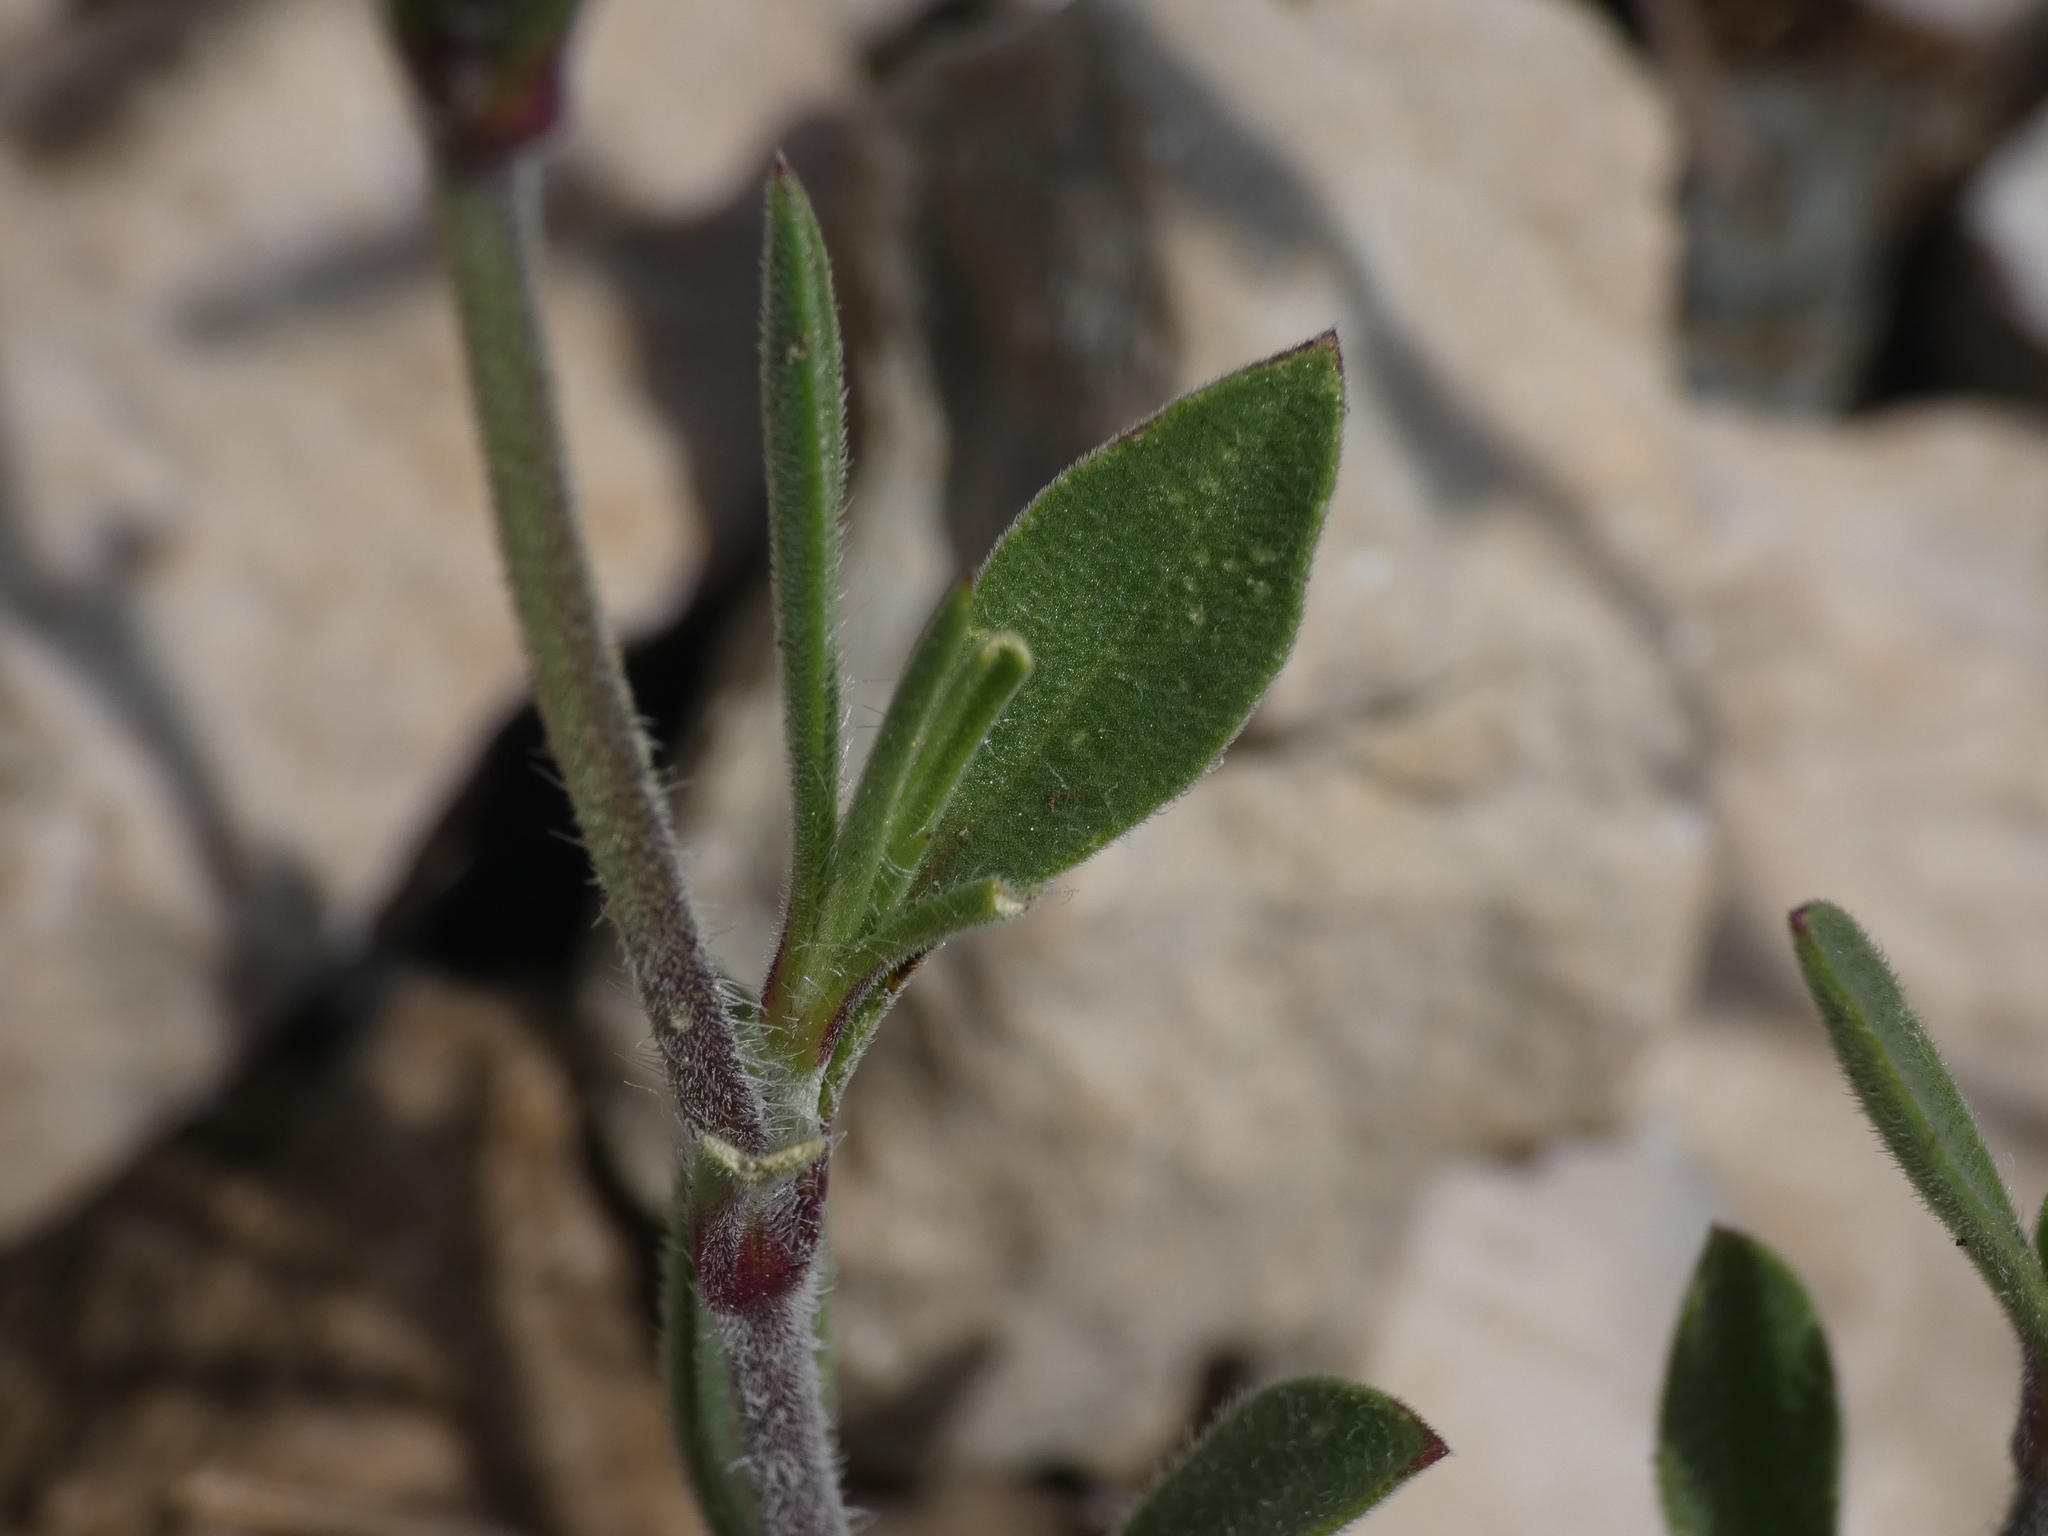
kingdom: Plantae
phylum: Tracheophyta
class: Magnoliopsida
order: Caryophyllales
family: Caryophyllaceae
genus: Silene
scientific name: Silene nocturna
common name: Mediterranean catchfly
